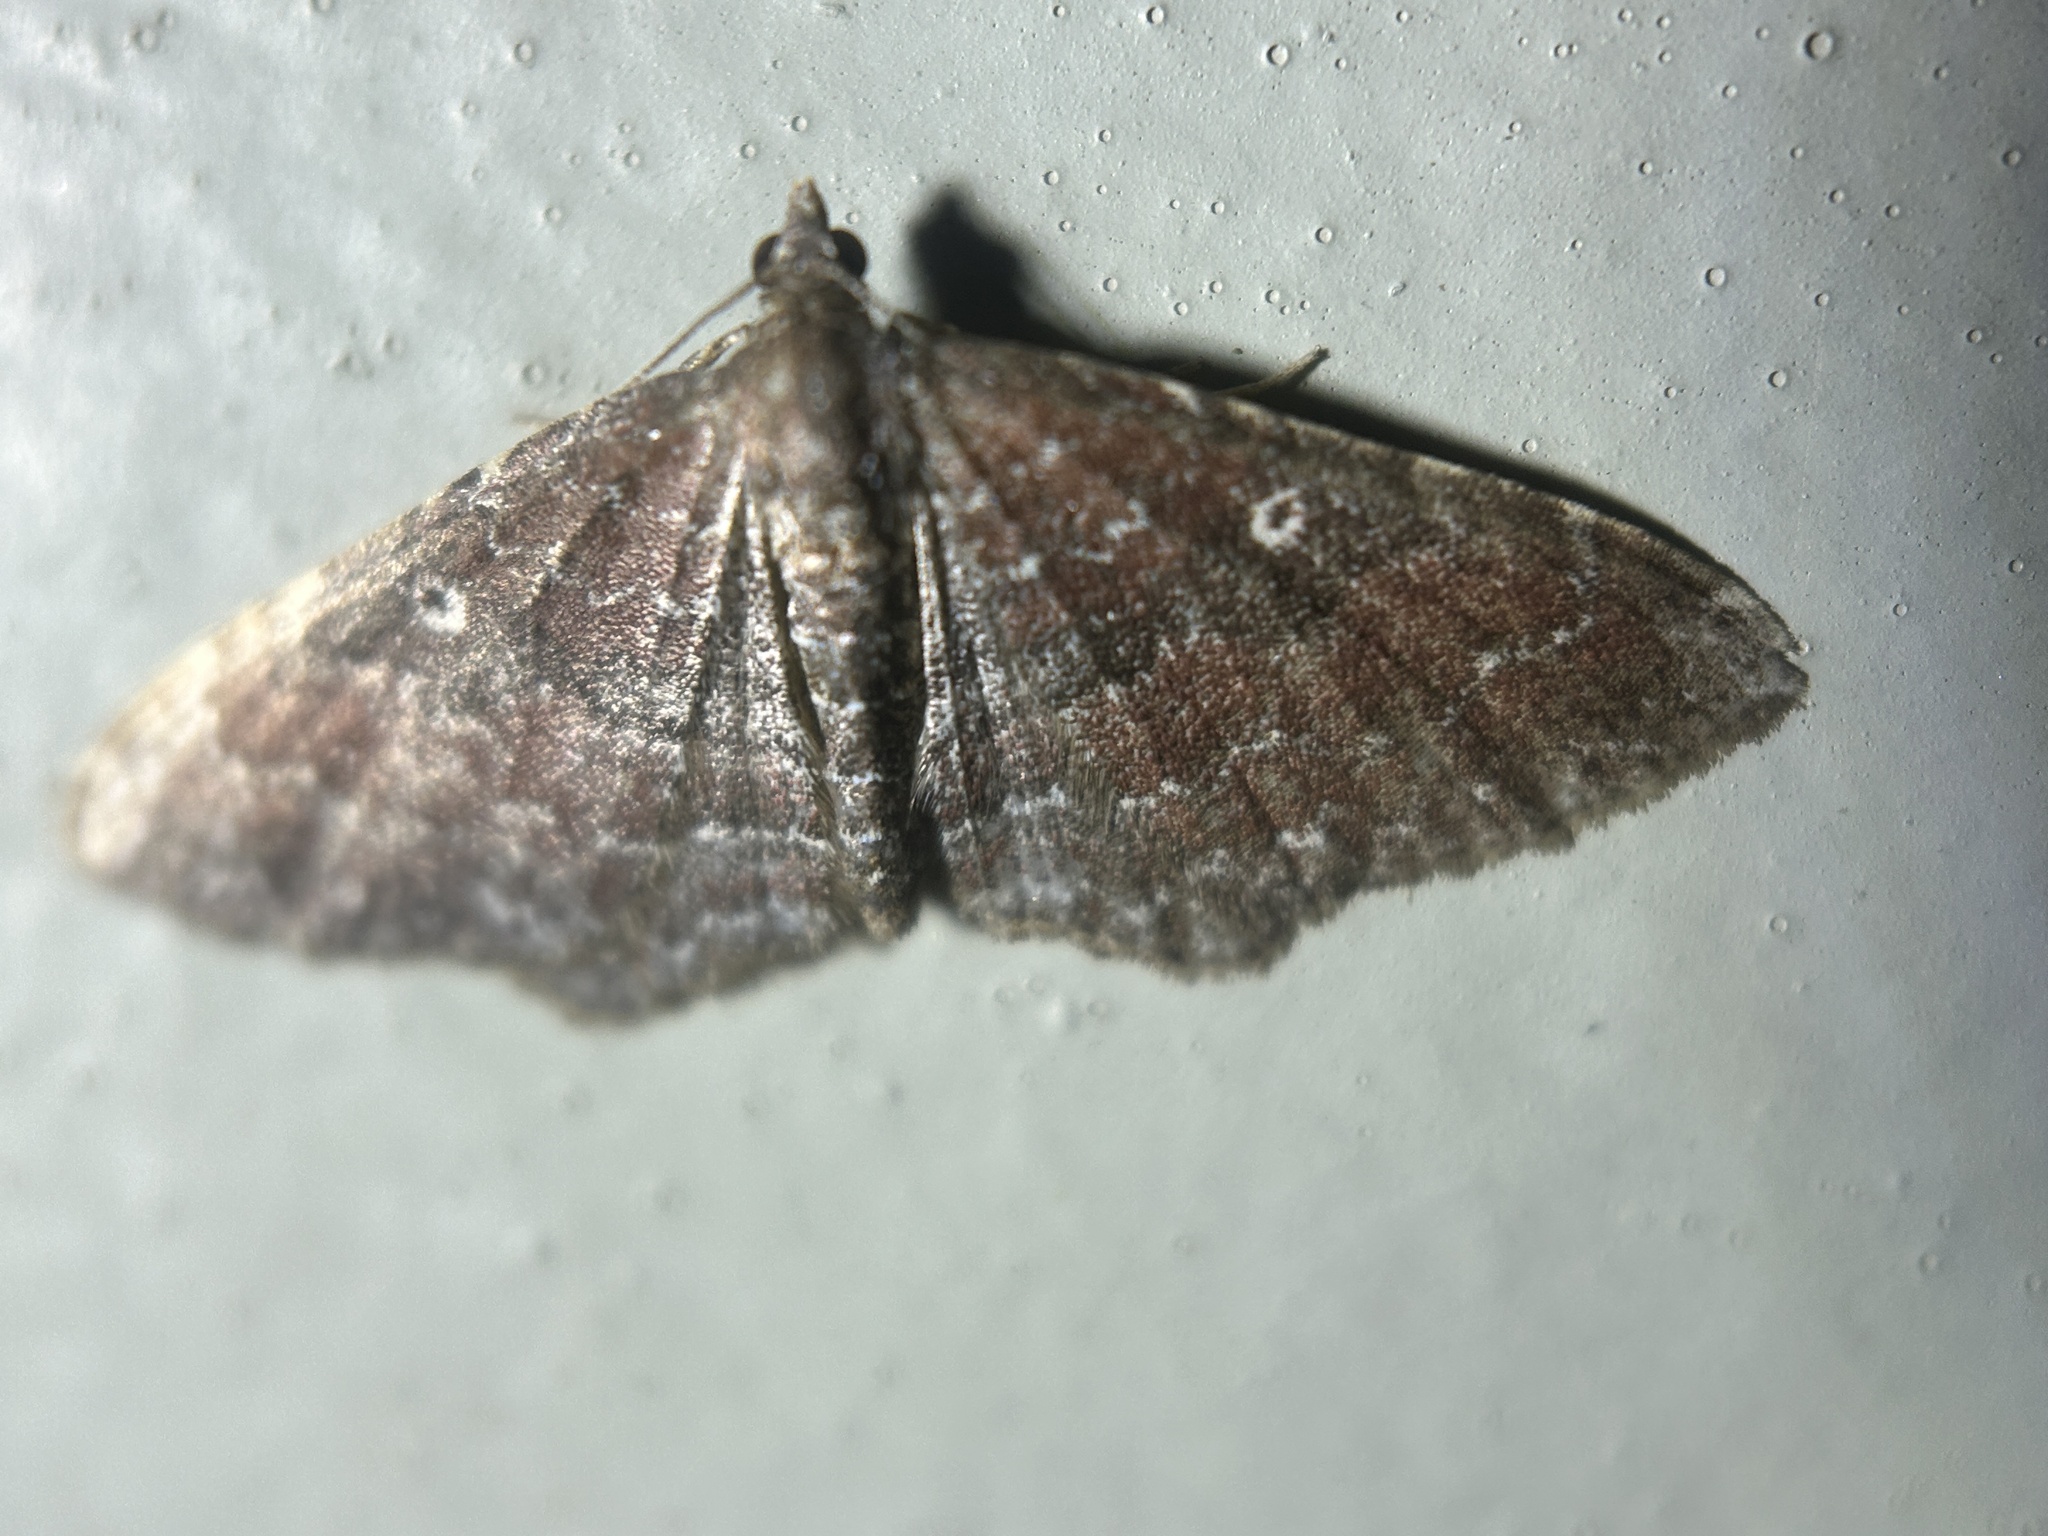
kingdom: Animalia
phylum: Arthropoda
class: Insecta
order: Lepidoptera
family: Geometridae
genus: Orthonama
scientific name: Orthonama obstipata
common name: The gem
